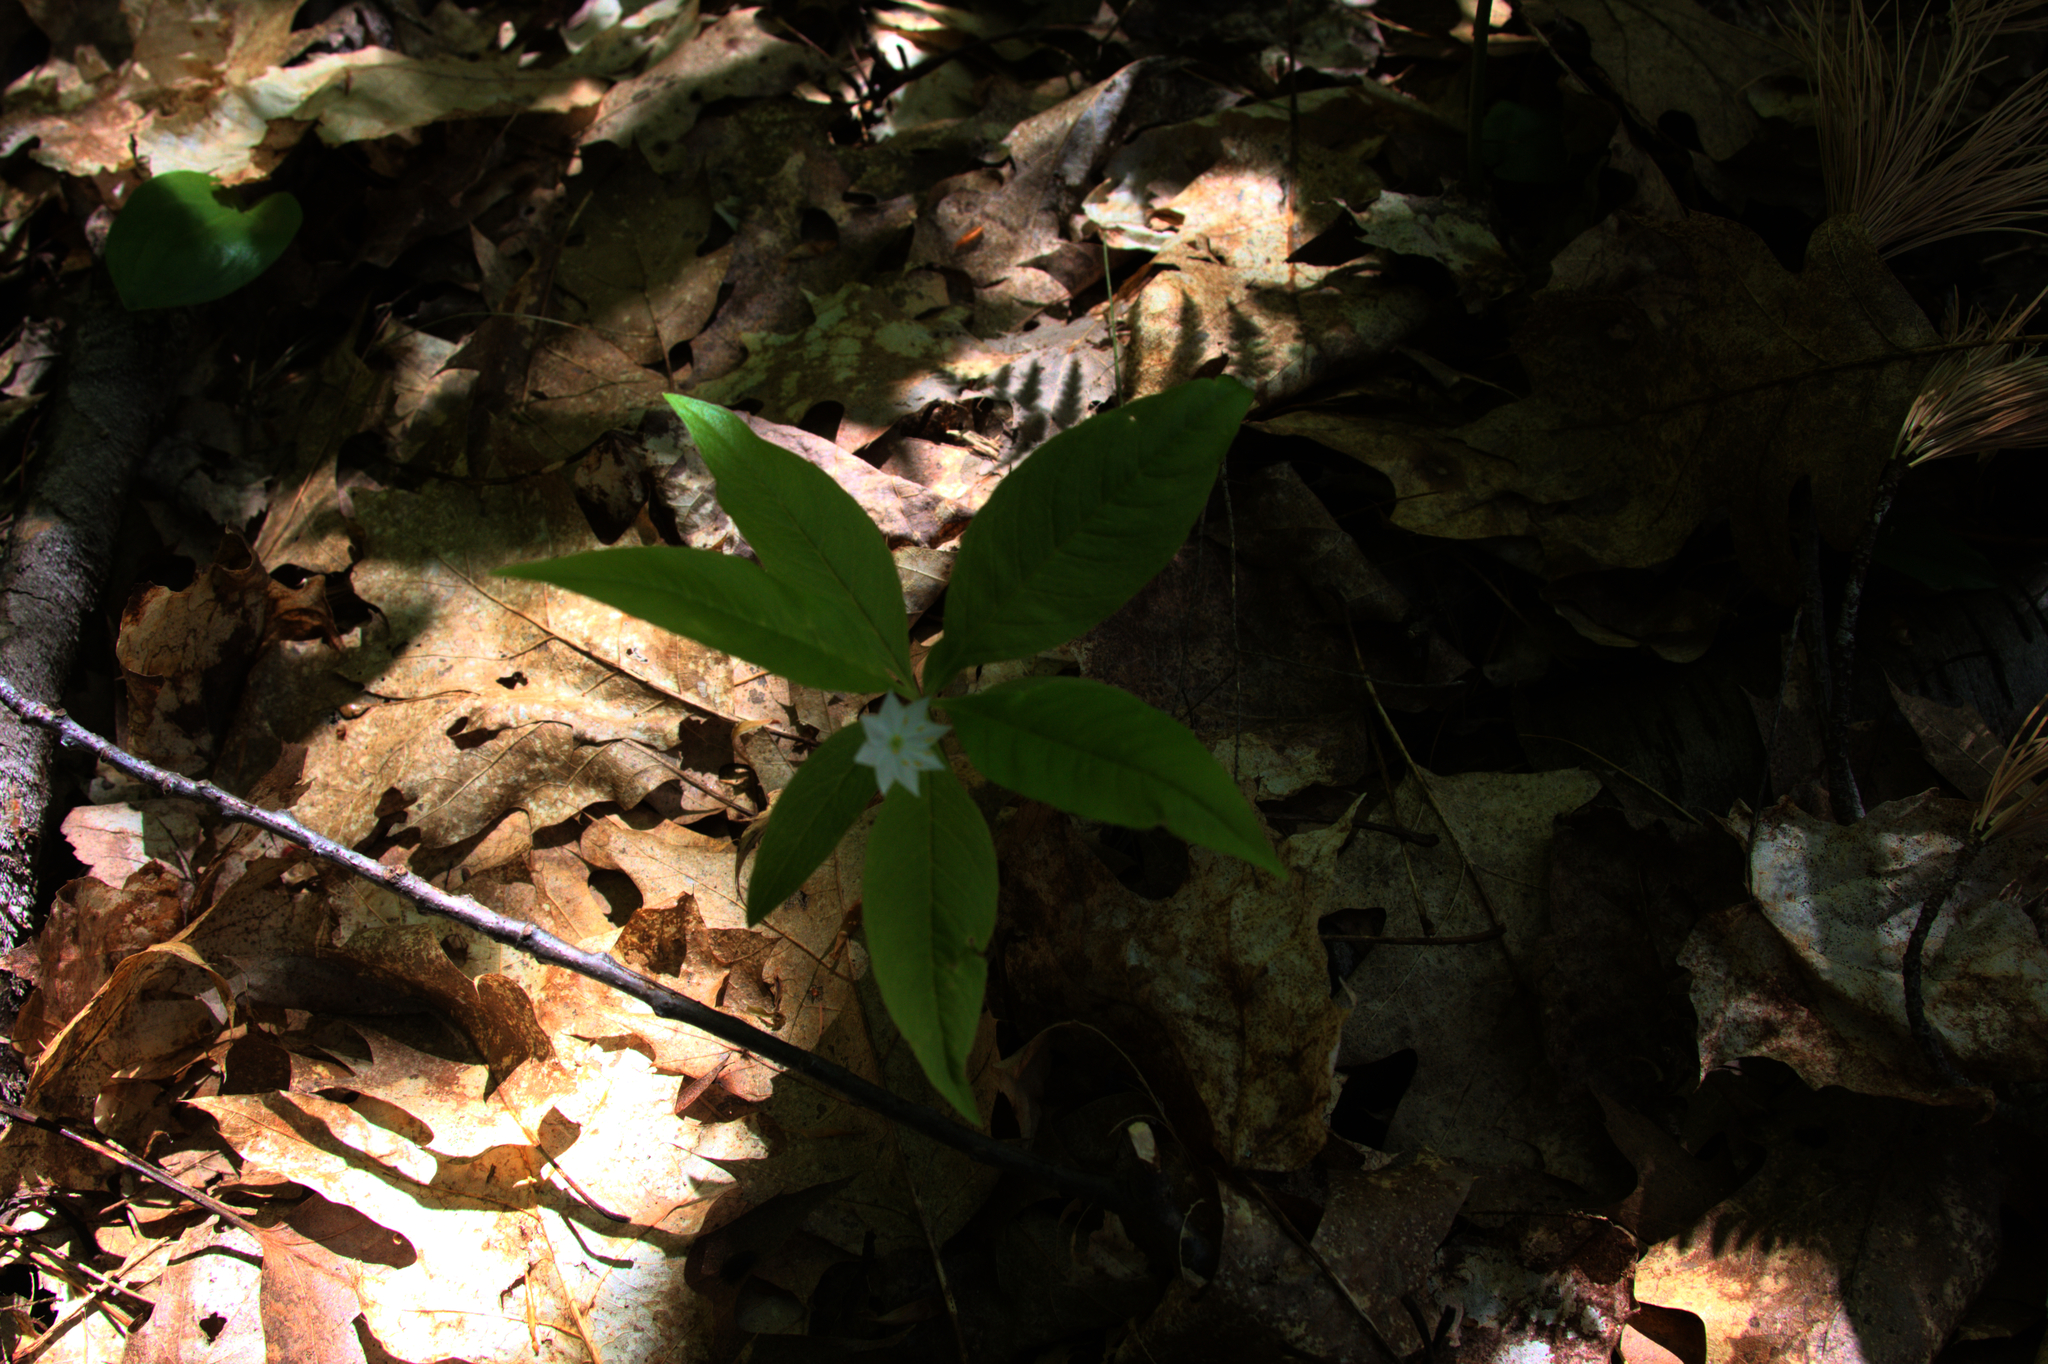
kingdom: Plantae
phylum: Tracheophyta
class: Magnoliopsida
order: Ericales
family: Primulaceae
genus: Lysimachia
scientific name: Lysimachia borealis
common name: American starflower
